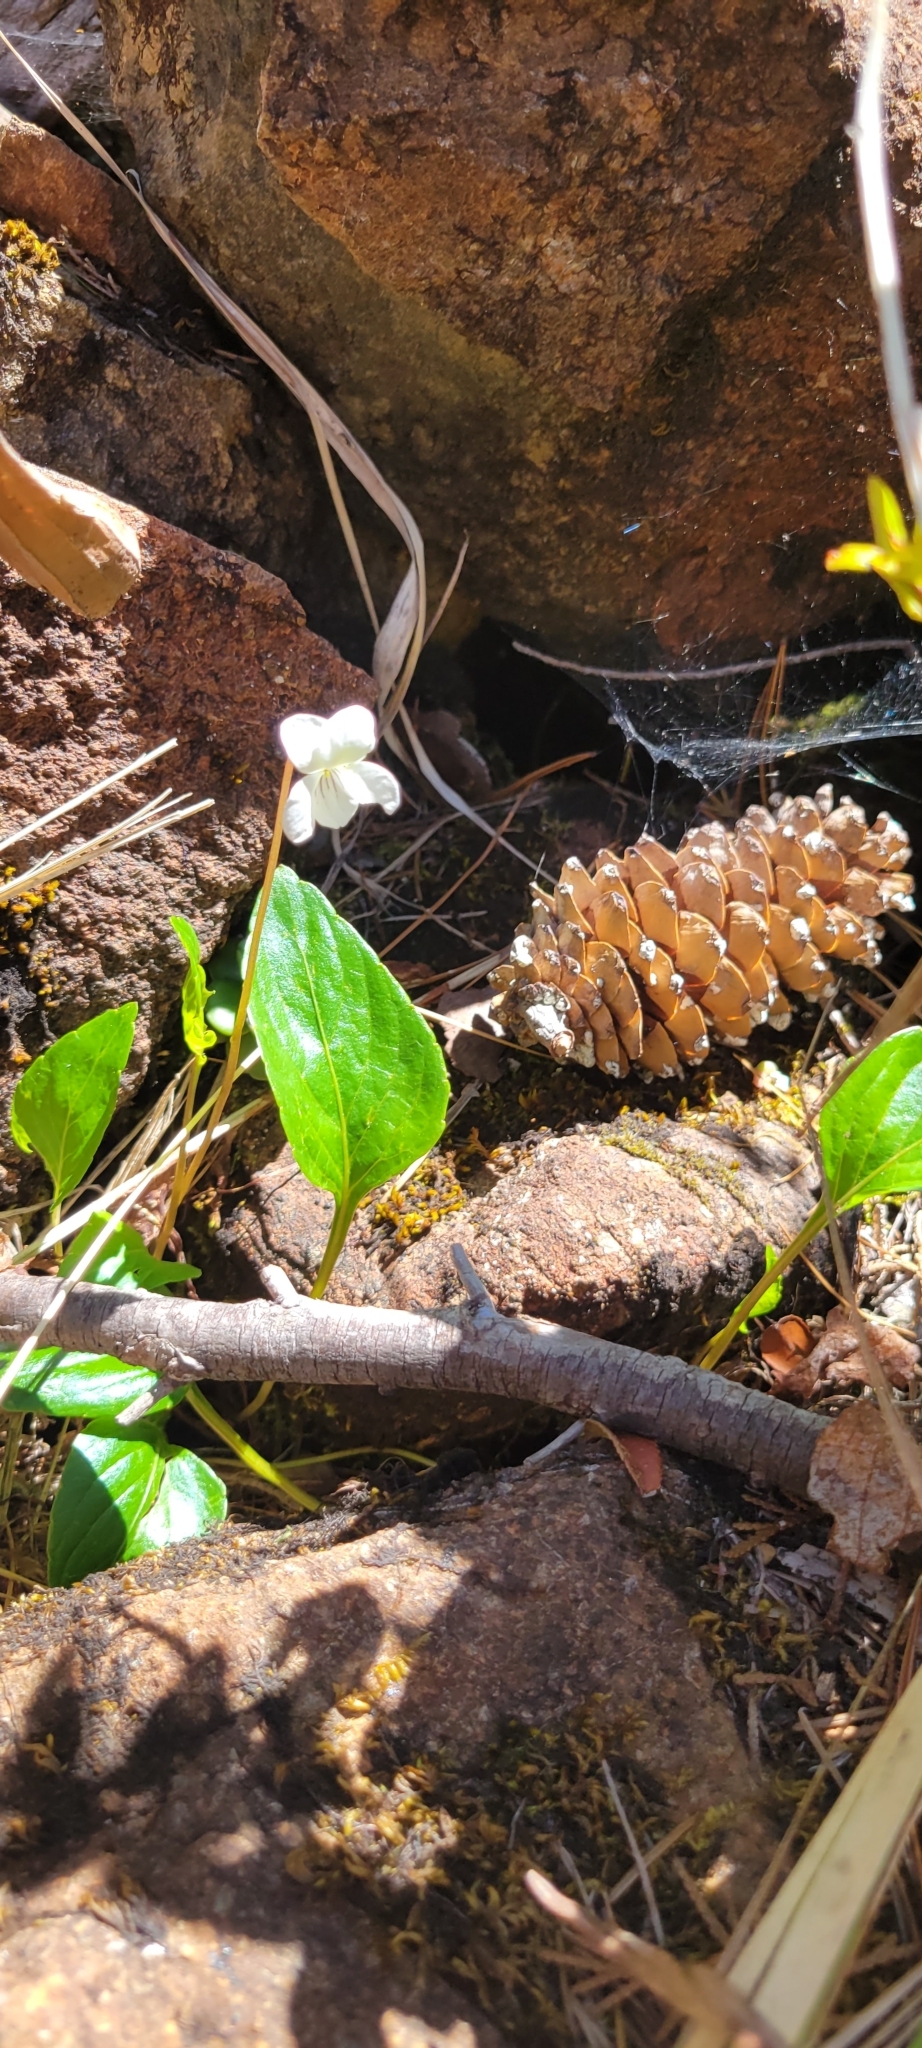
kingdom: Plantae
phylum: Tracheophyta
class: Magnoliopsida
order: Malpighiales
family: Violaceae
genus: Viola
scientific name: Viola primulifolia
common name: Primrose-leaf violet
